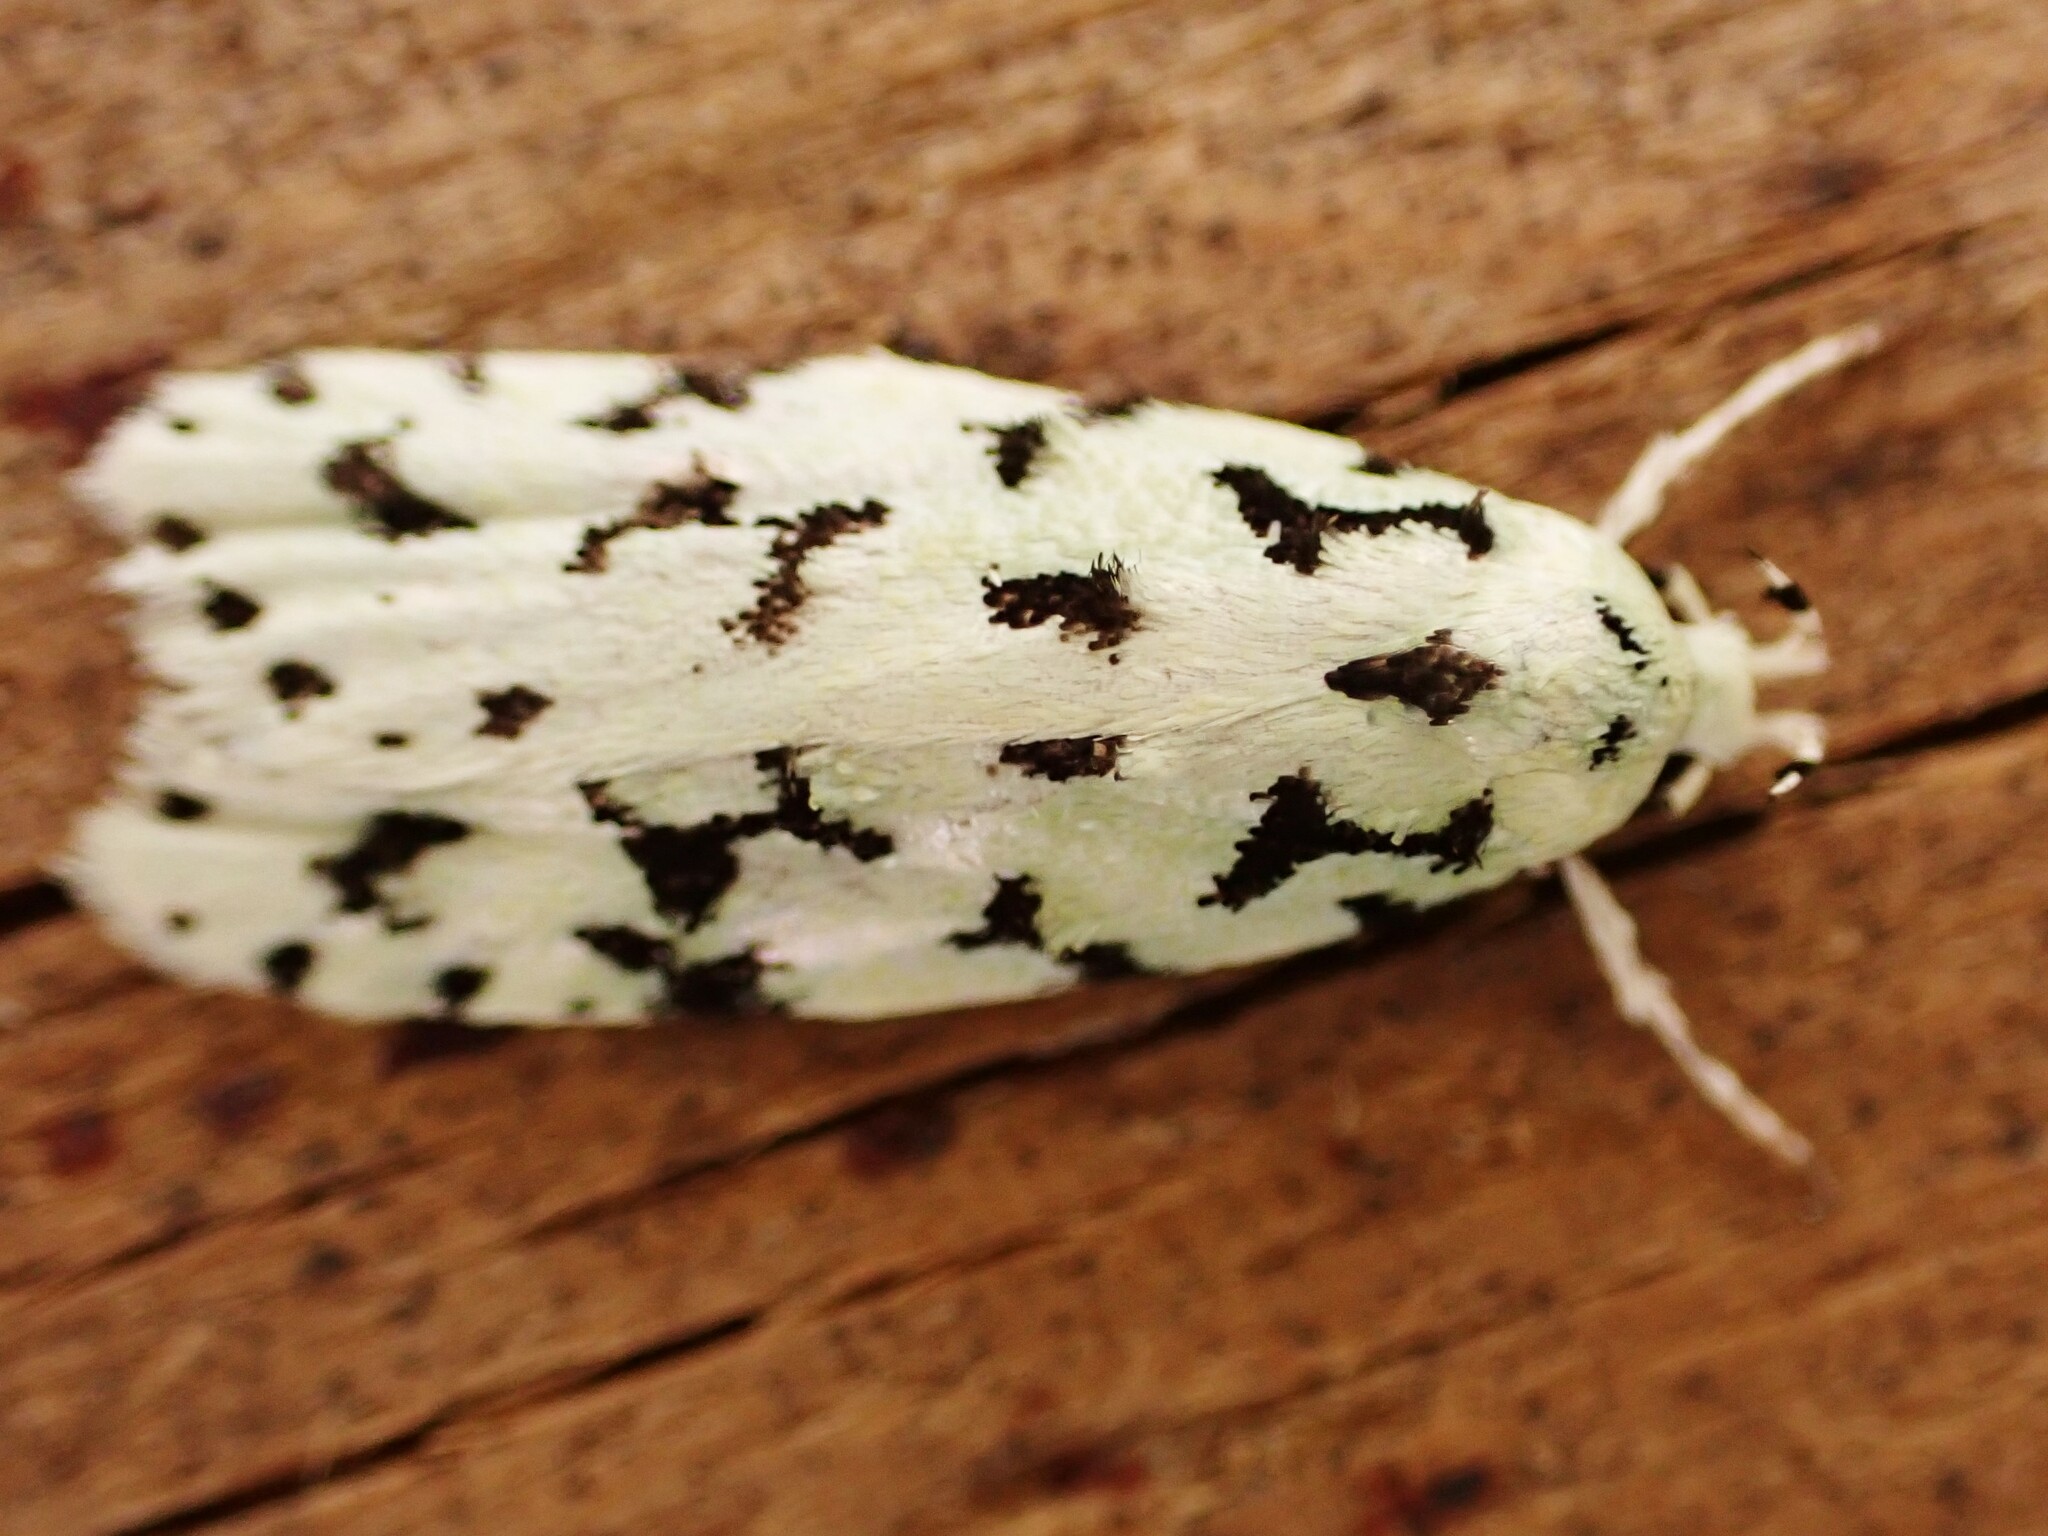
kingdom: Animalia
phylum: Arthropoda
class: Insecta
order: Lepidoptera
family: Oecophoridae
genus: Izatha
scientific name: Izatha huttoni
